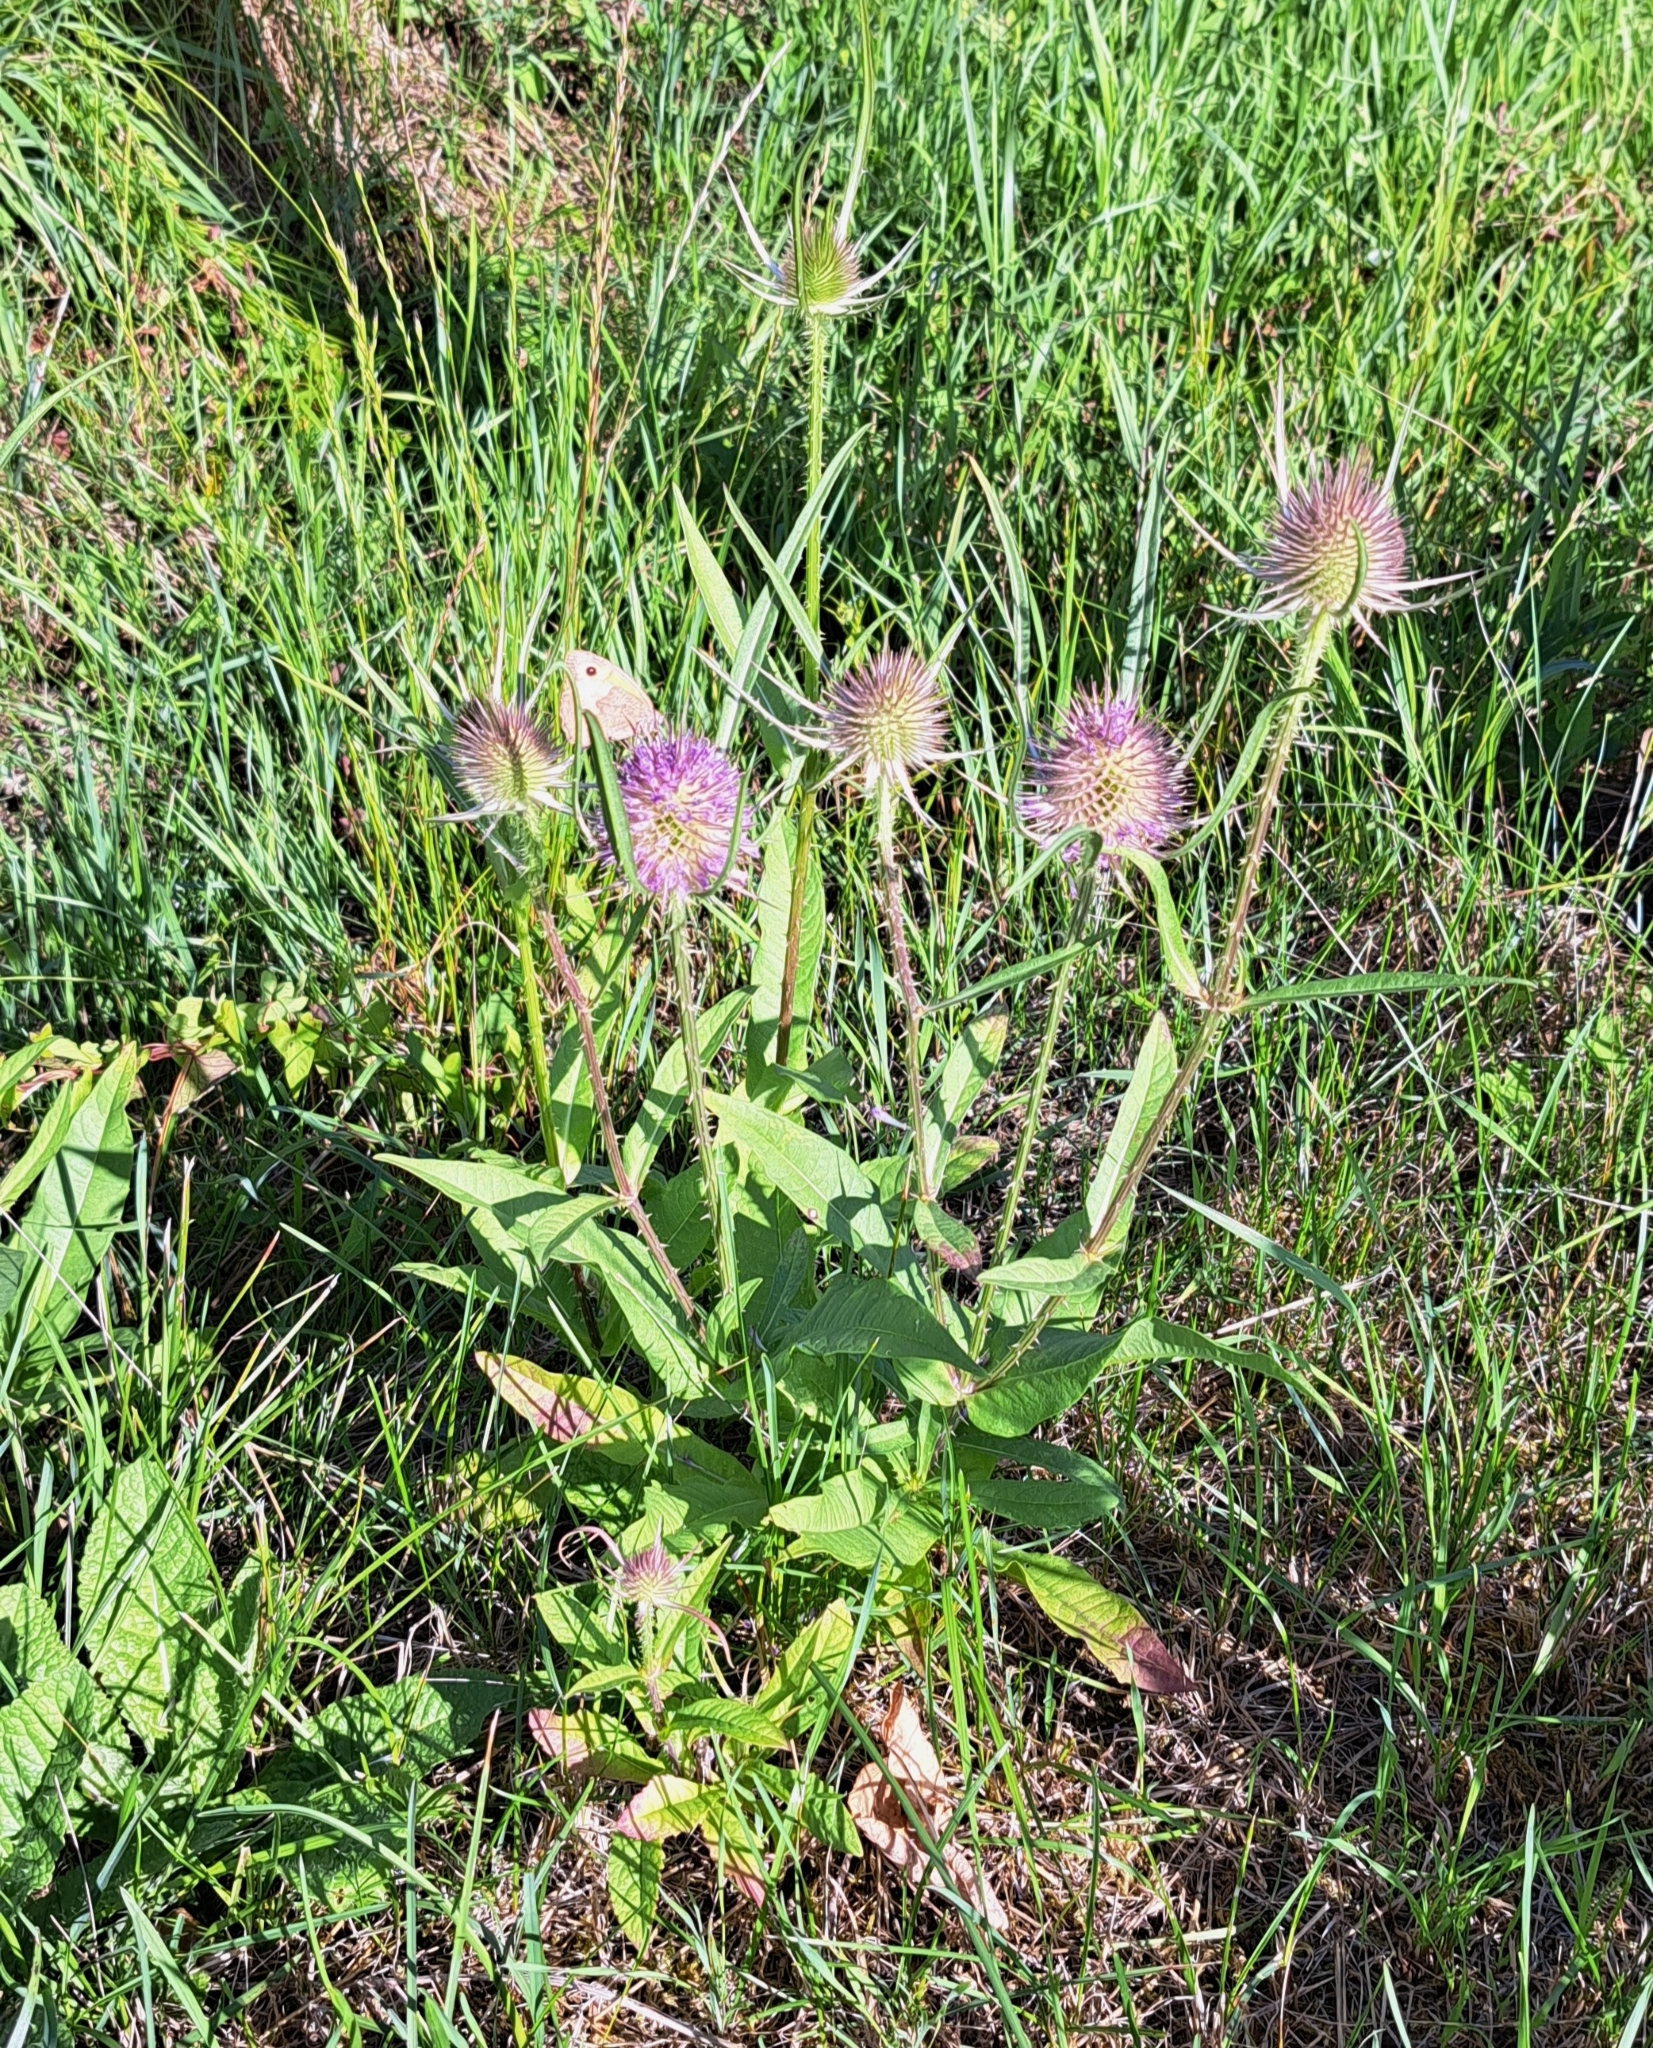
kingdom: Plantae
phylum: Tracheophyta
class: Magnoliopsida
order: Dipsacales
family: Caprifoliaceae
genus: Dipsacus
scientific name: Dipsacus fullonum
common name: Teasel
